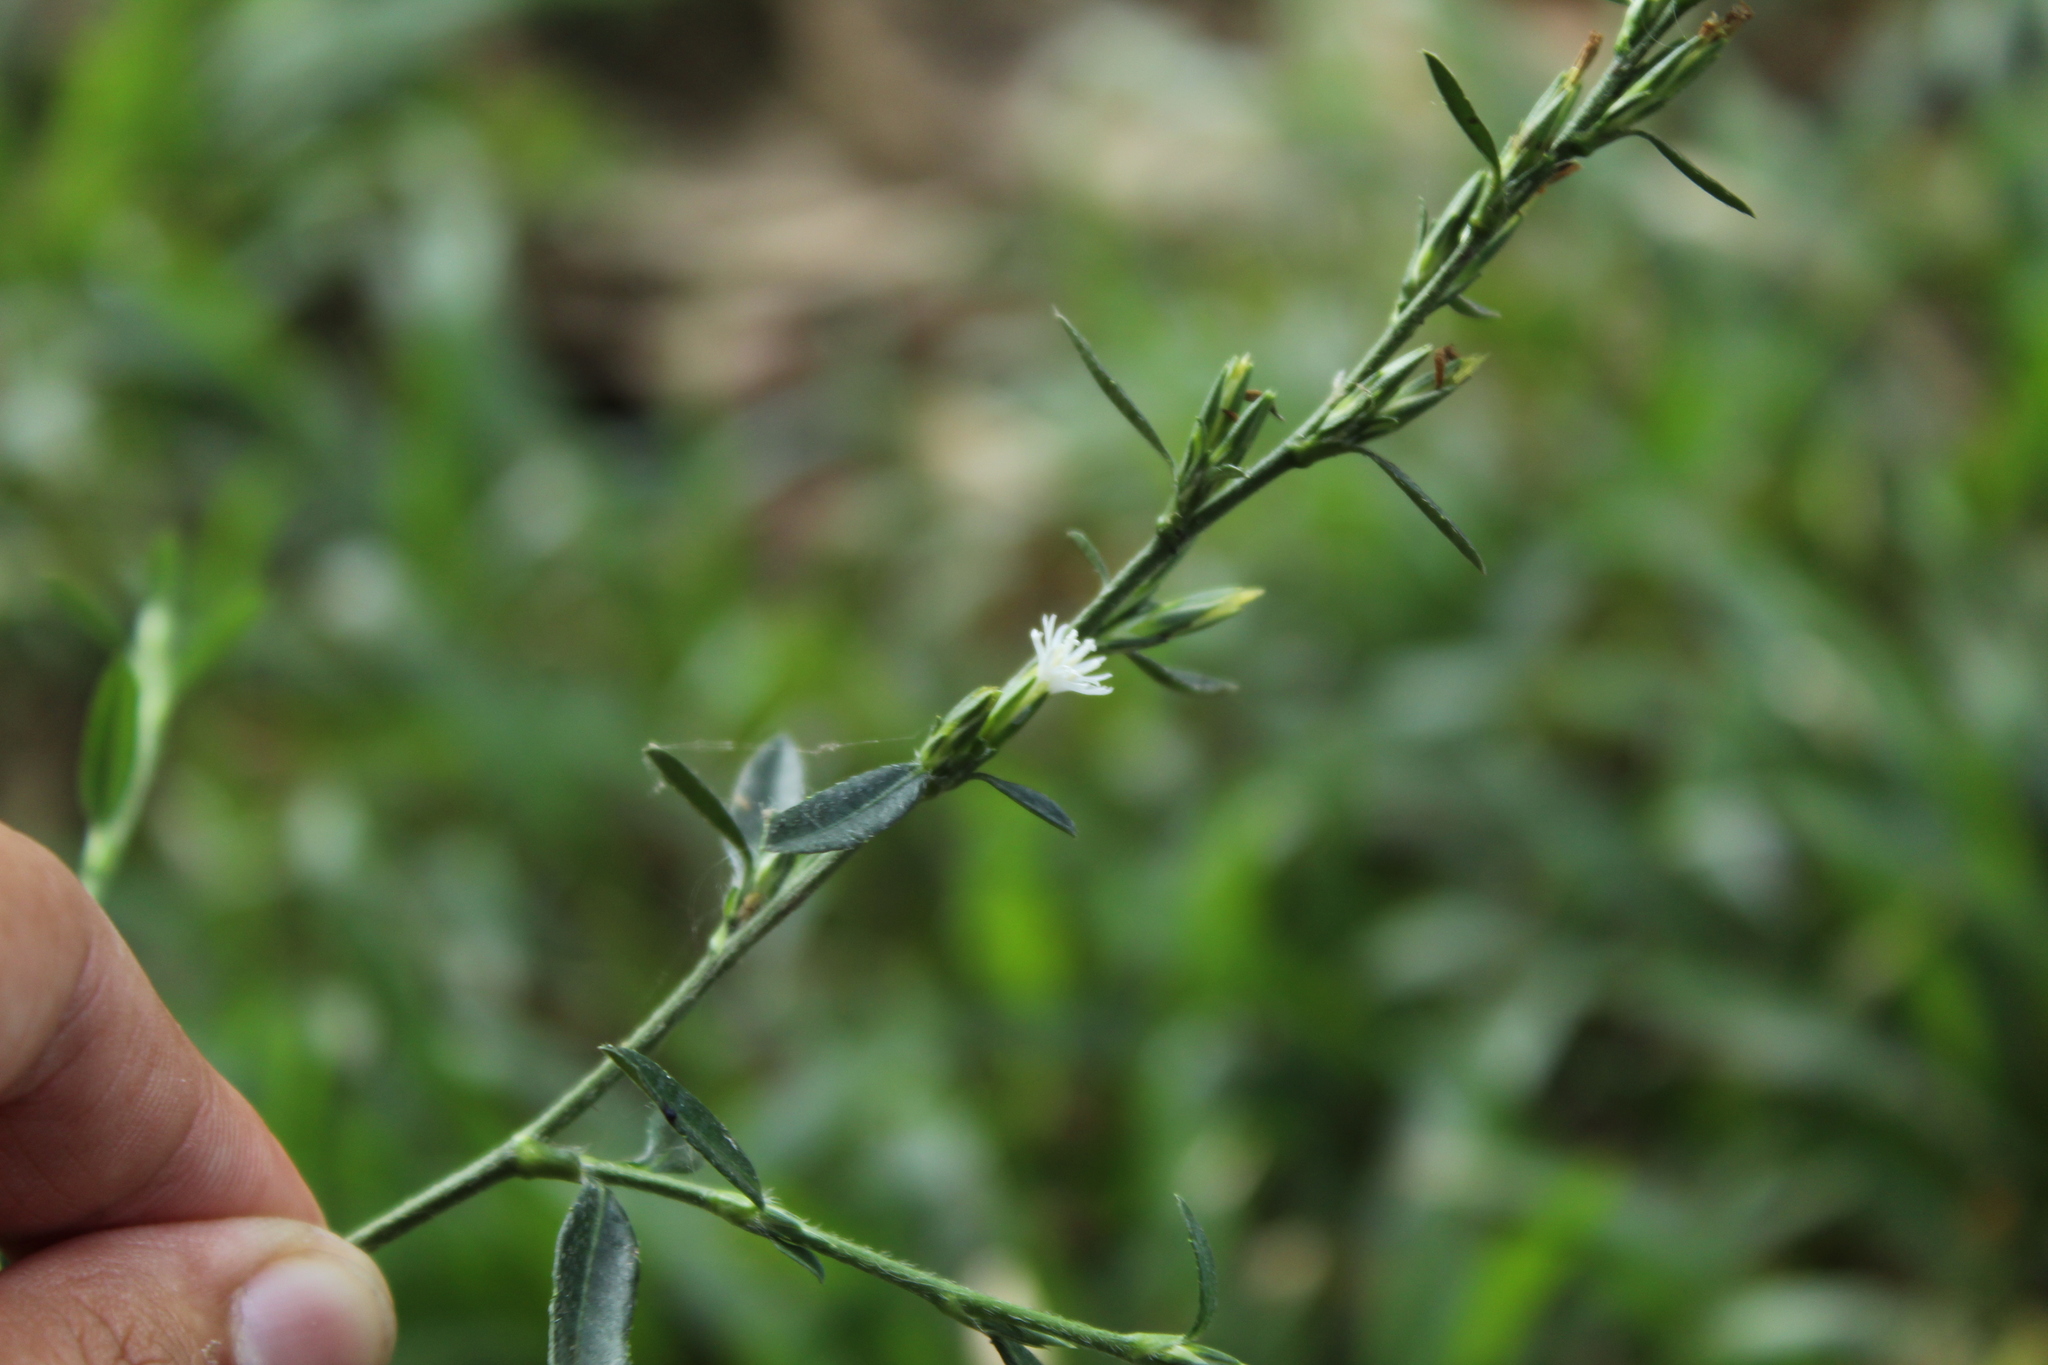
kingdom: Plantae
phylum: Tracheophyta
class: Magnoliopsida
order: Asterales
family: Asteraceae
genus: Pseudelephantopus
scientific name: Pseudelephantopus spicatus
